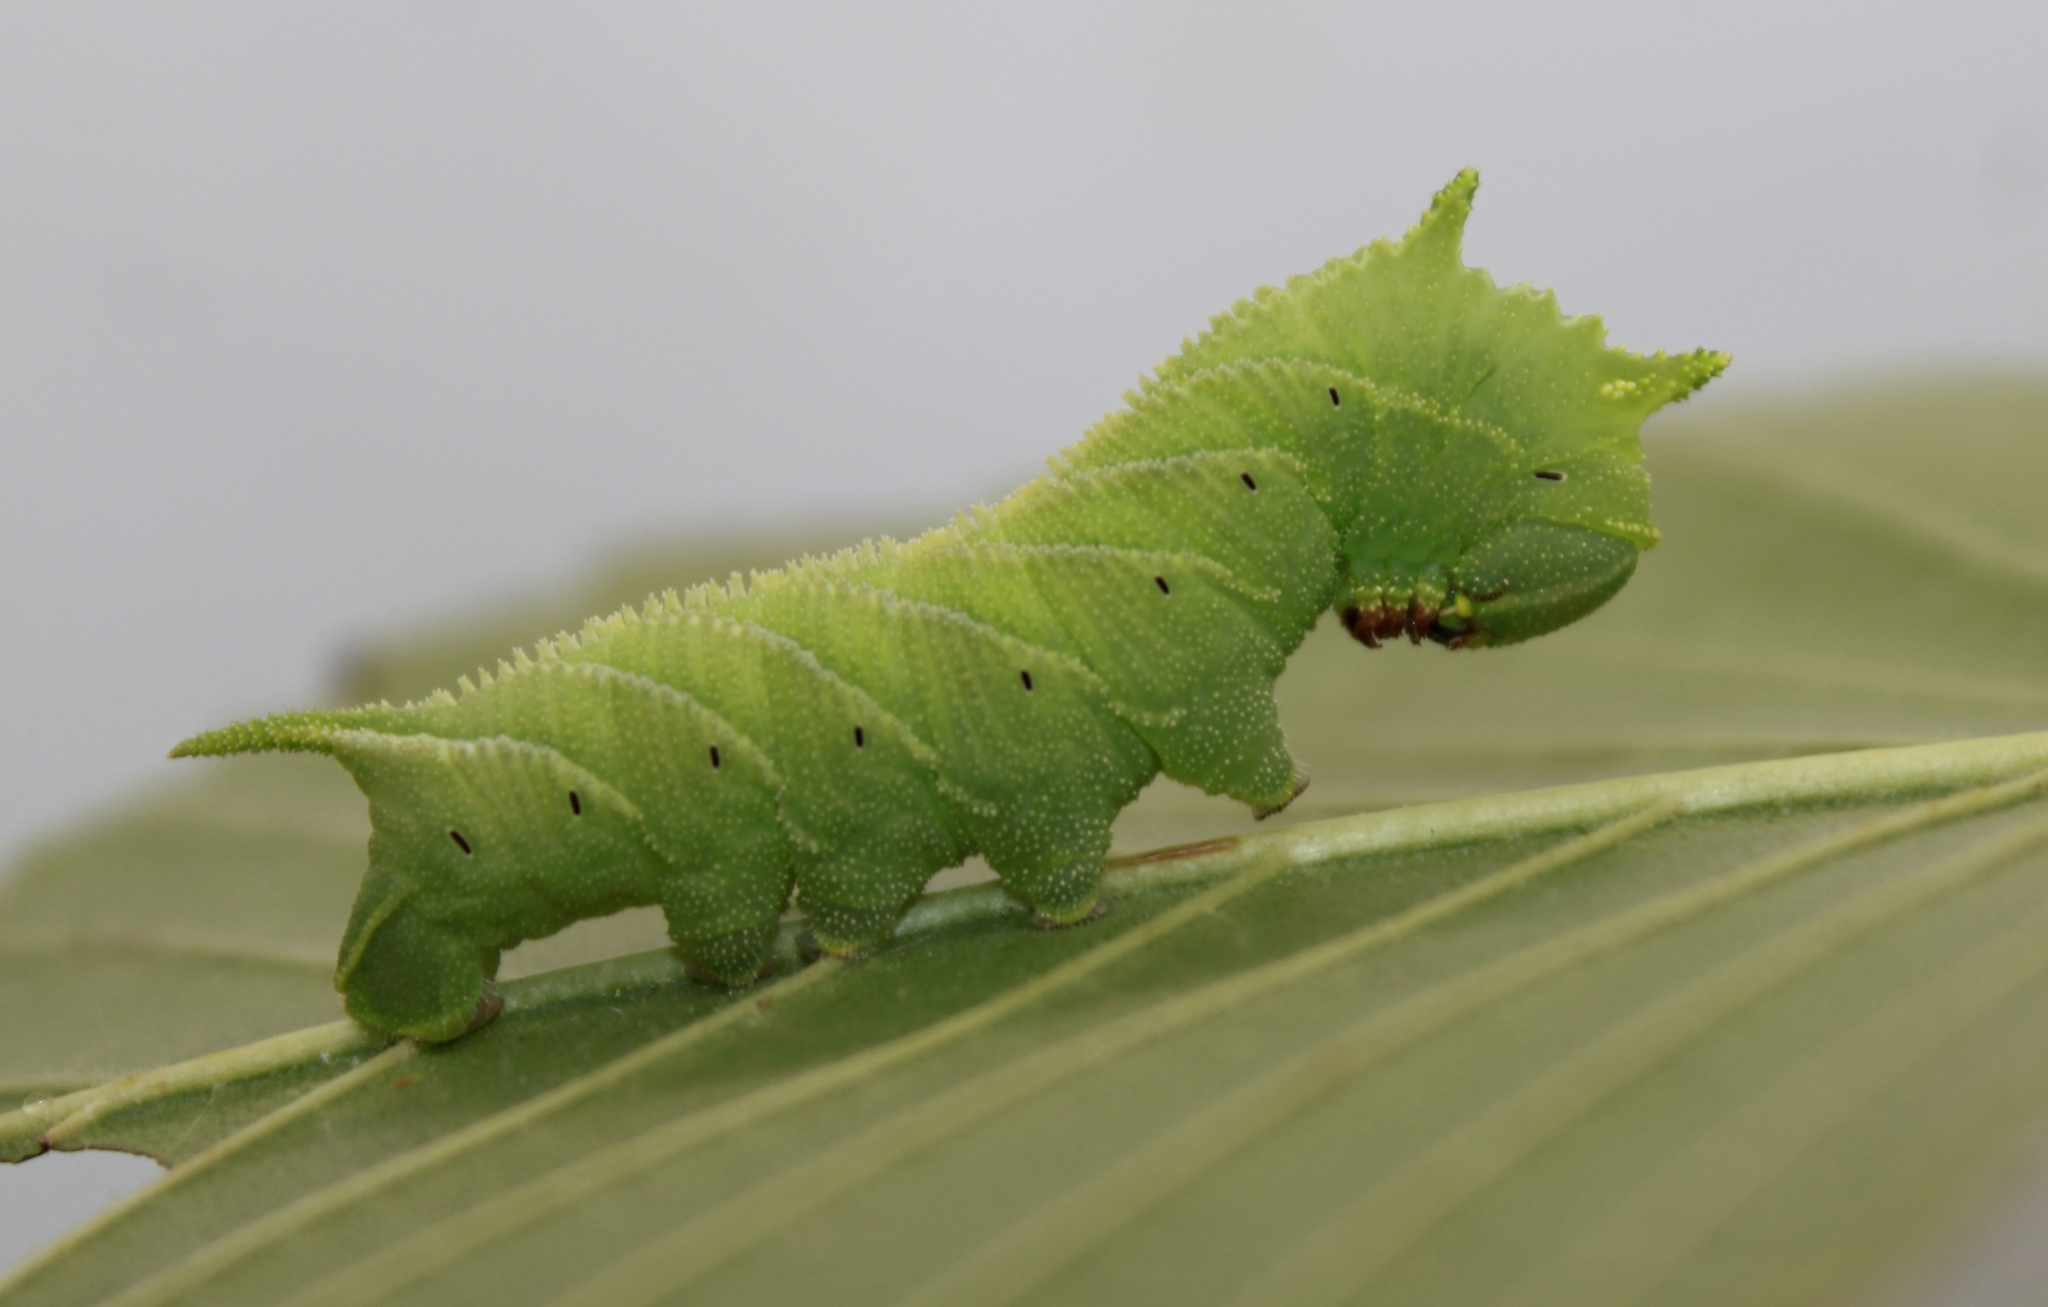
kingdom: Animalia
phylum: Arthropoda
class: Insecta
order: Lepidoptera
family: Sphingidae
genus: Ceratomia
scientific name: Ceratomia amyntor
